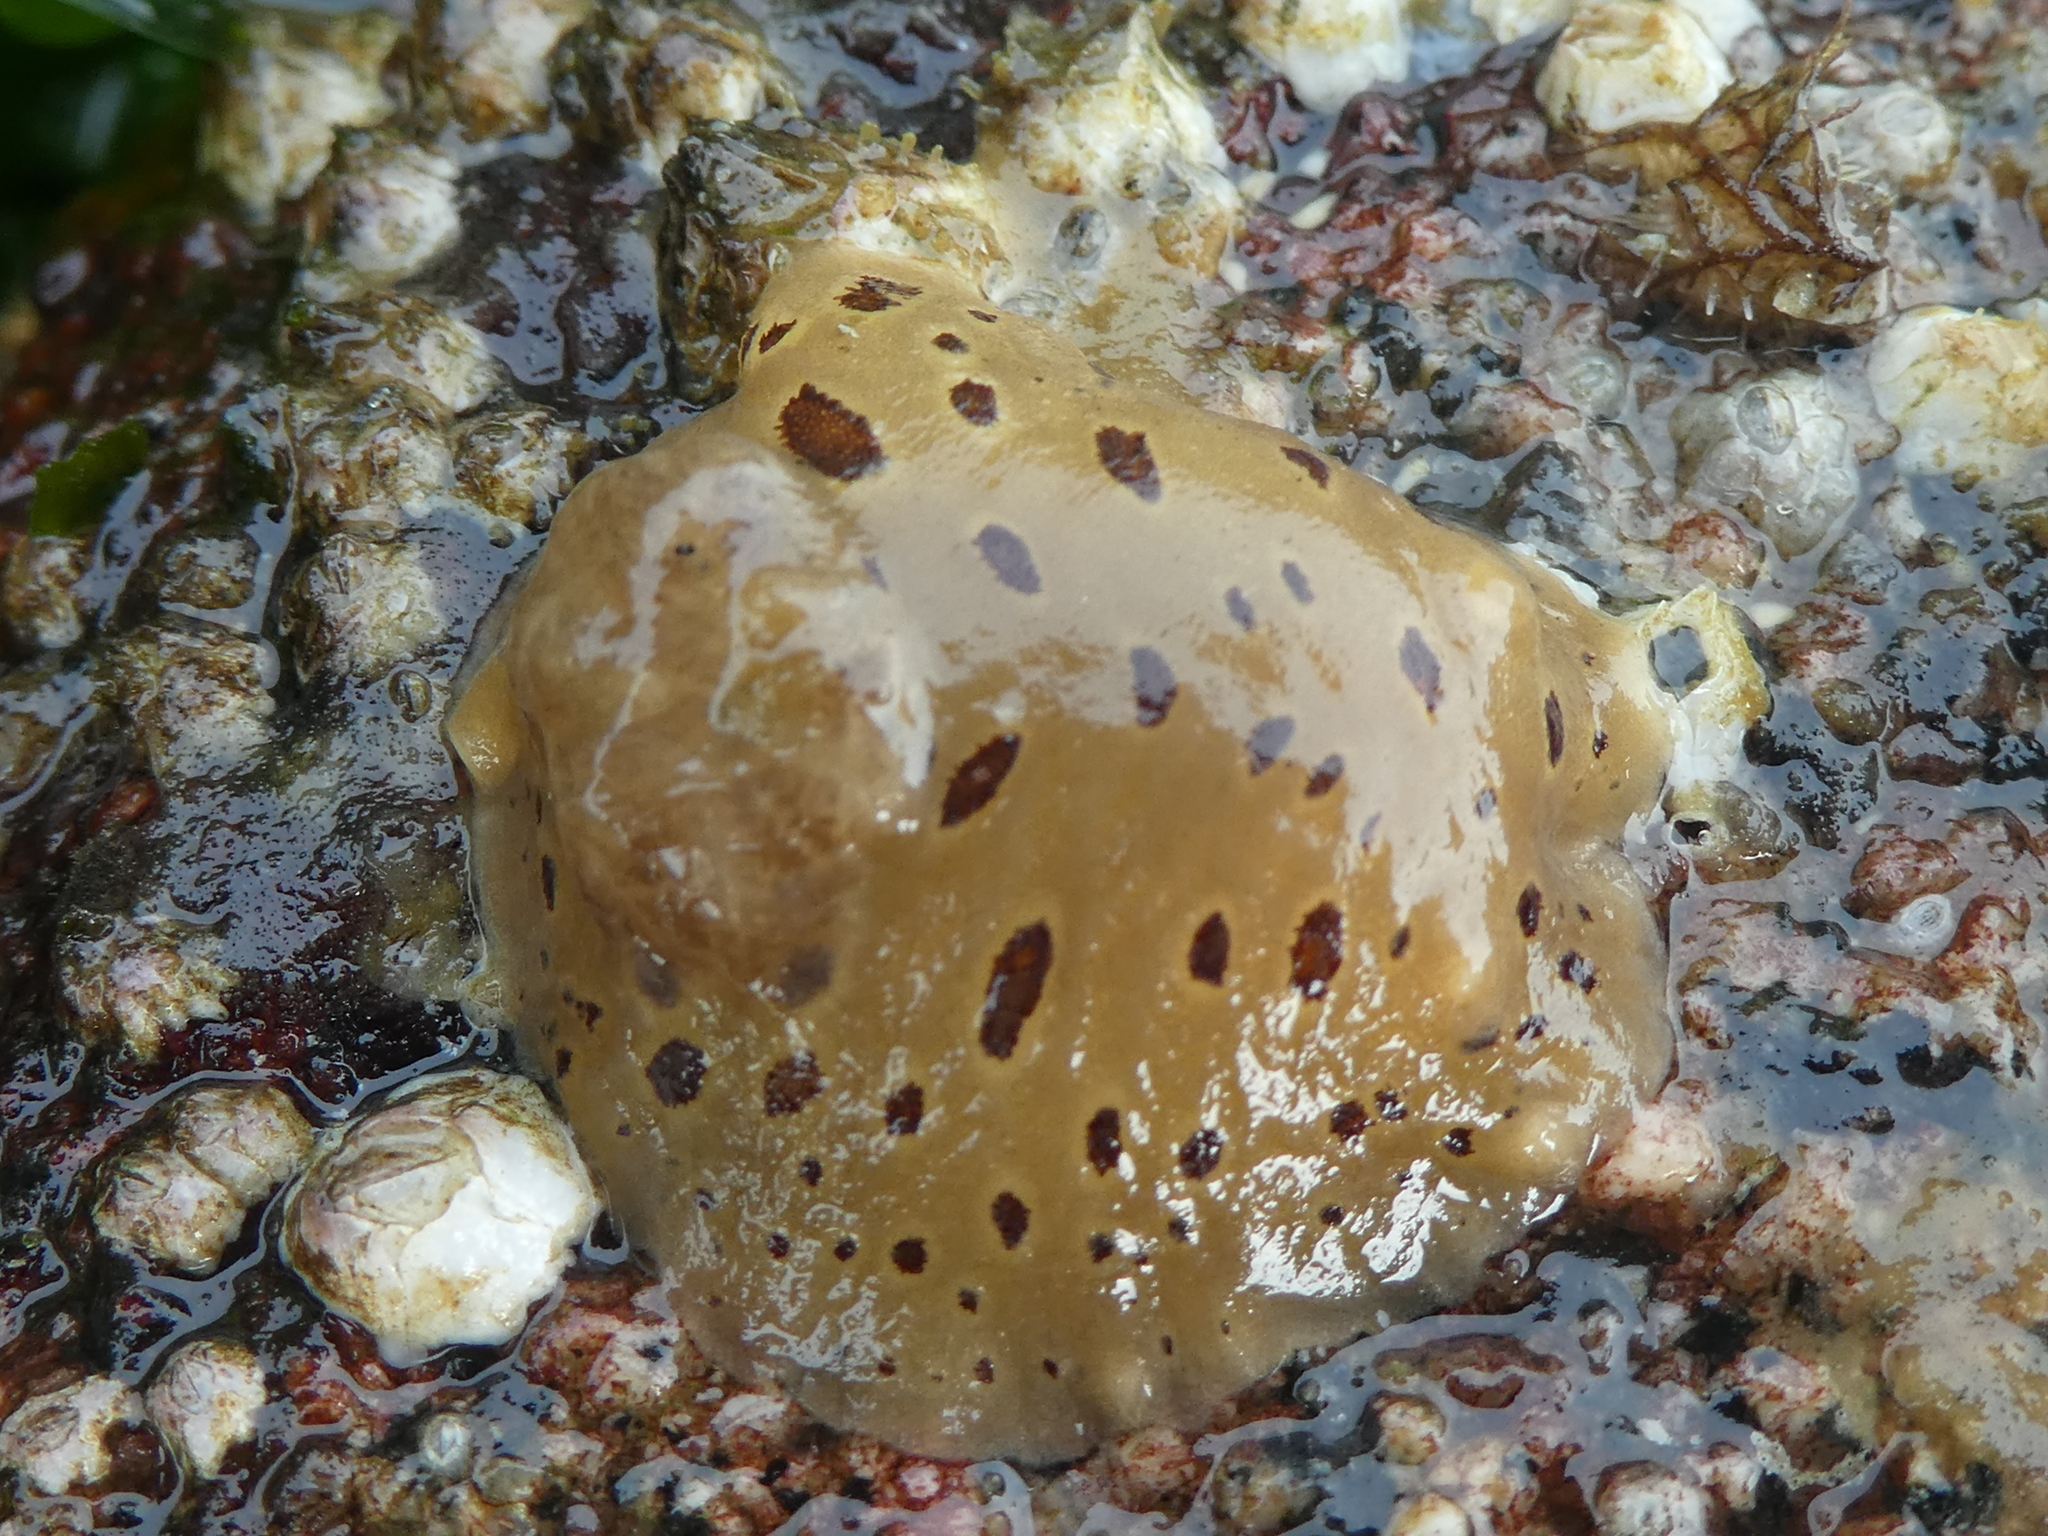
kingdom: Animalia
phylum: Mollusca
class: Gastropoda
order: Nudibranchia
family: Discodorididae
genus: Diaulula
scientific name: Diaulula odonoghuei
